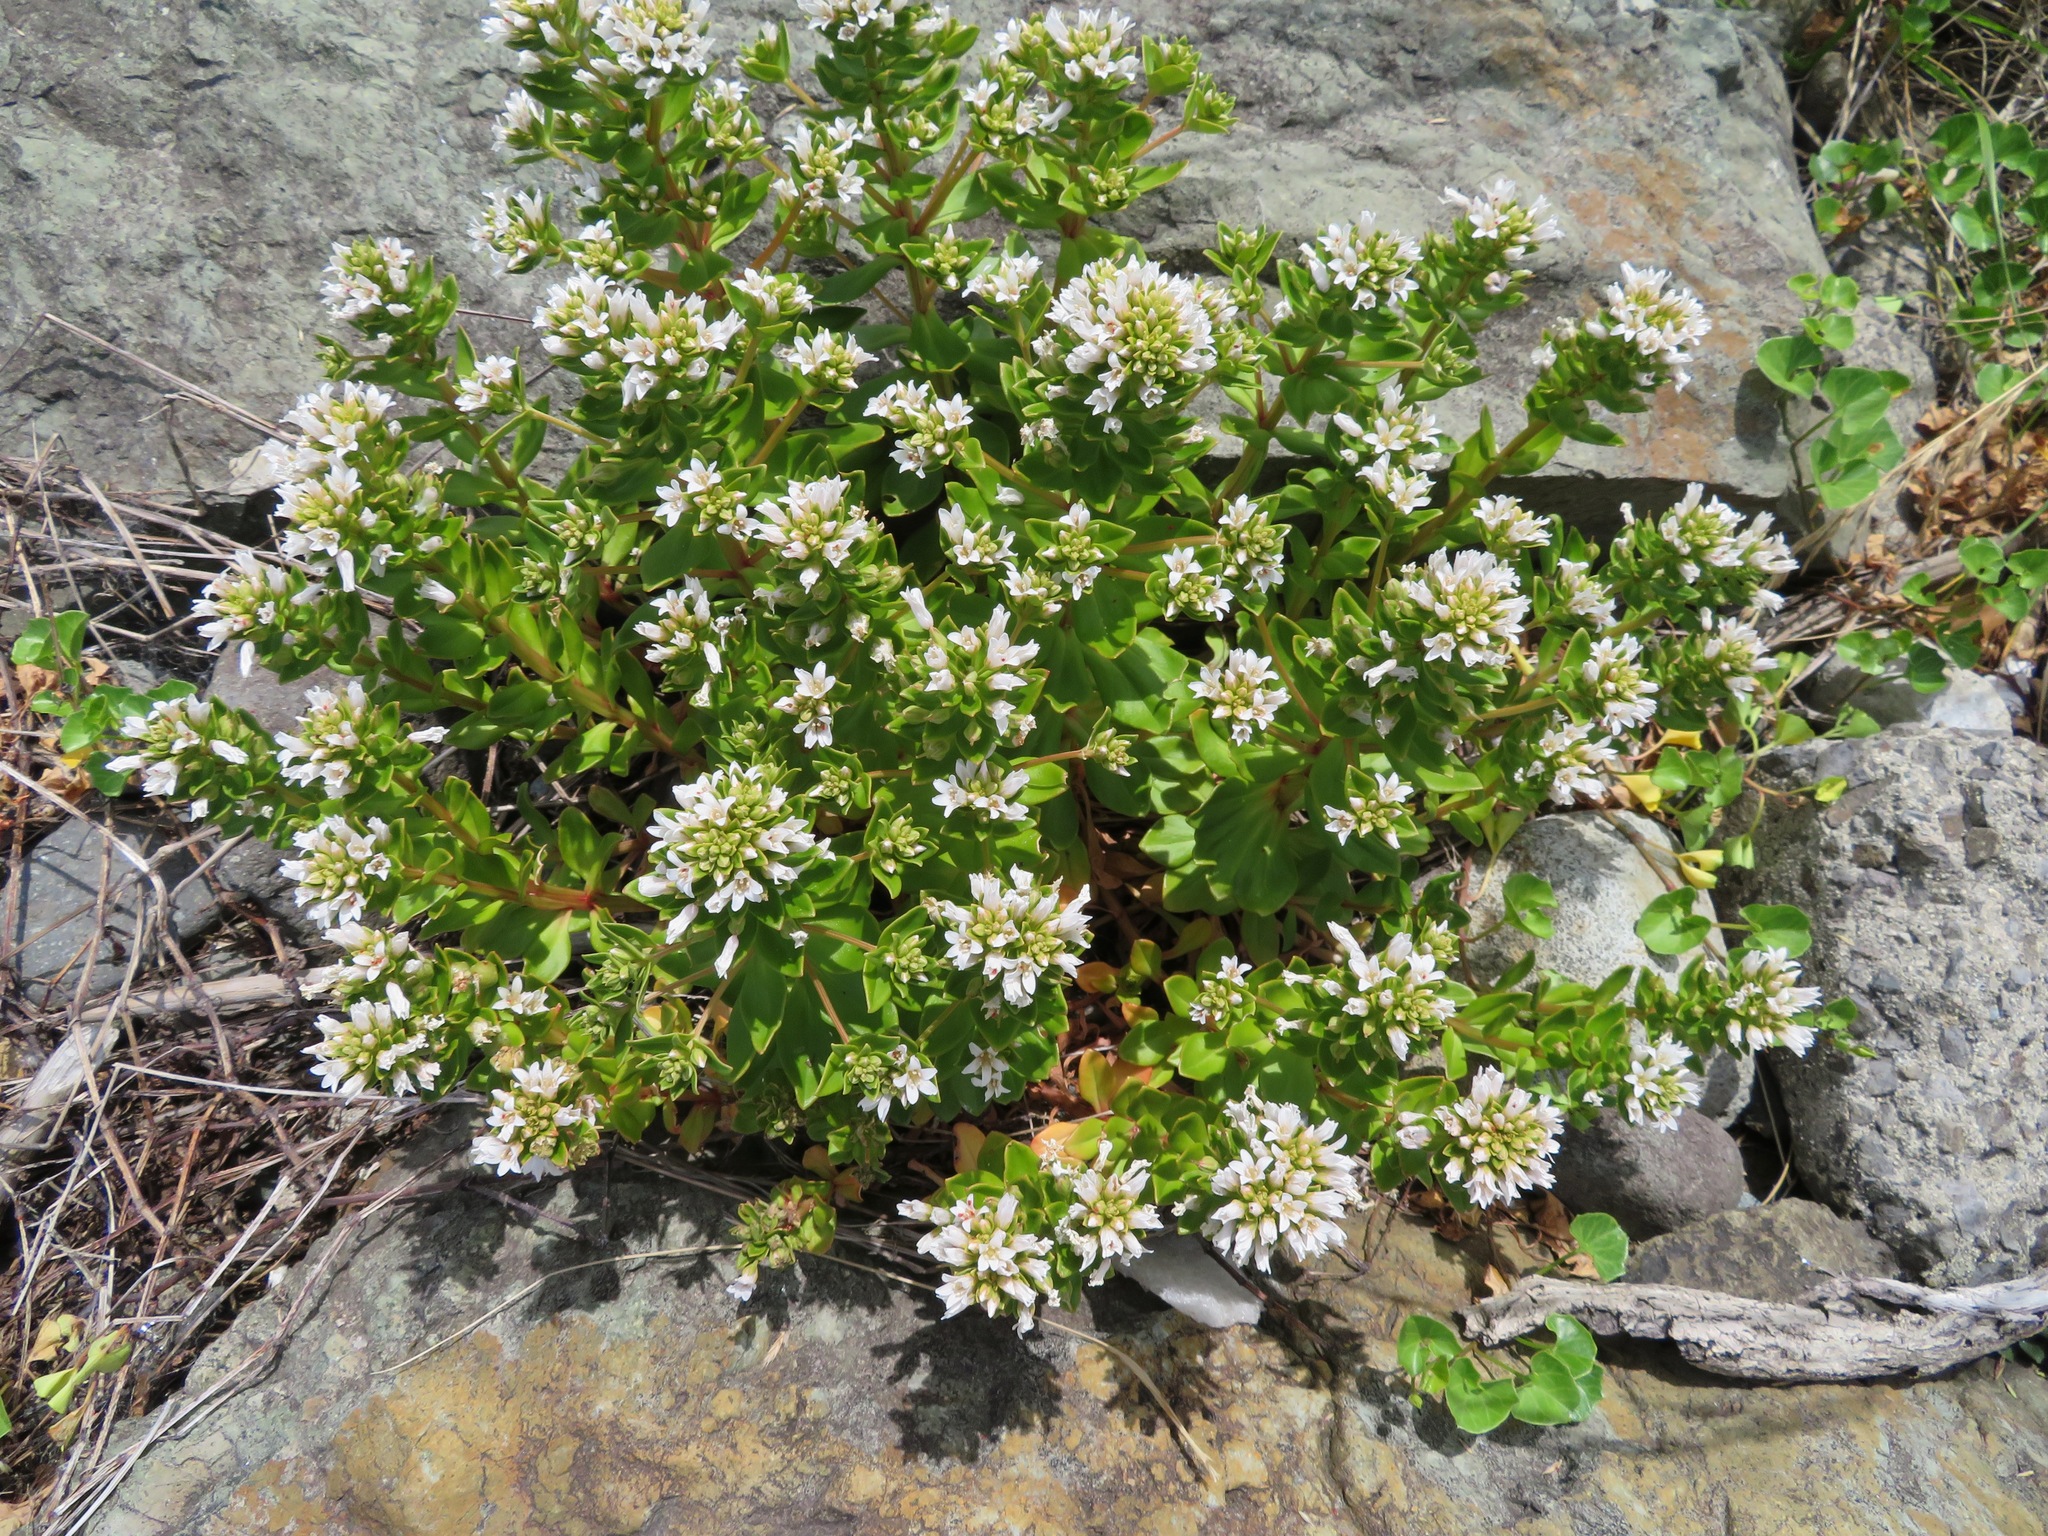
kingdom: Plantae
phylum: Tracheophyta
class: Magnoliopsida
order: Ericales
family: Primulaceae
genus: Lysimachia
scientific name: Lysimachia mauritiana
